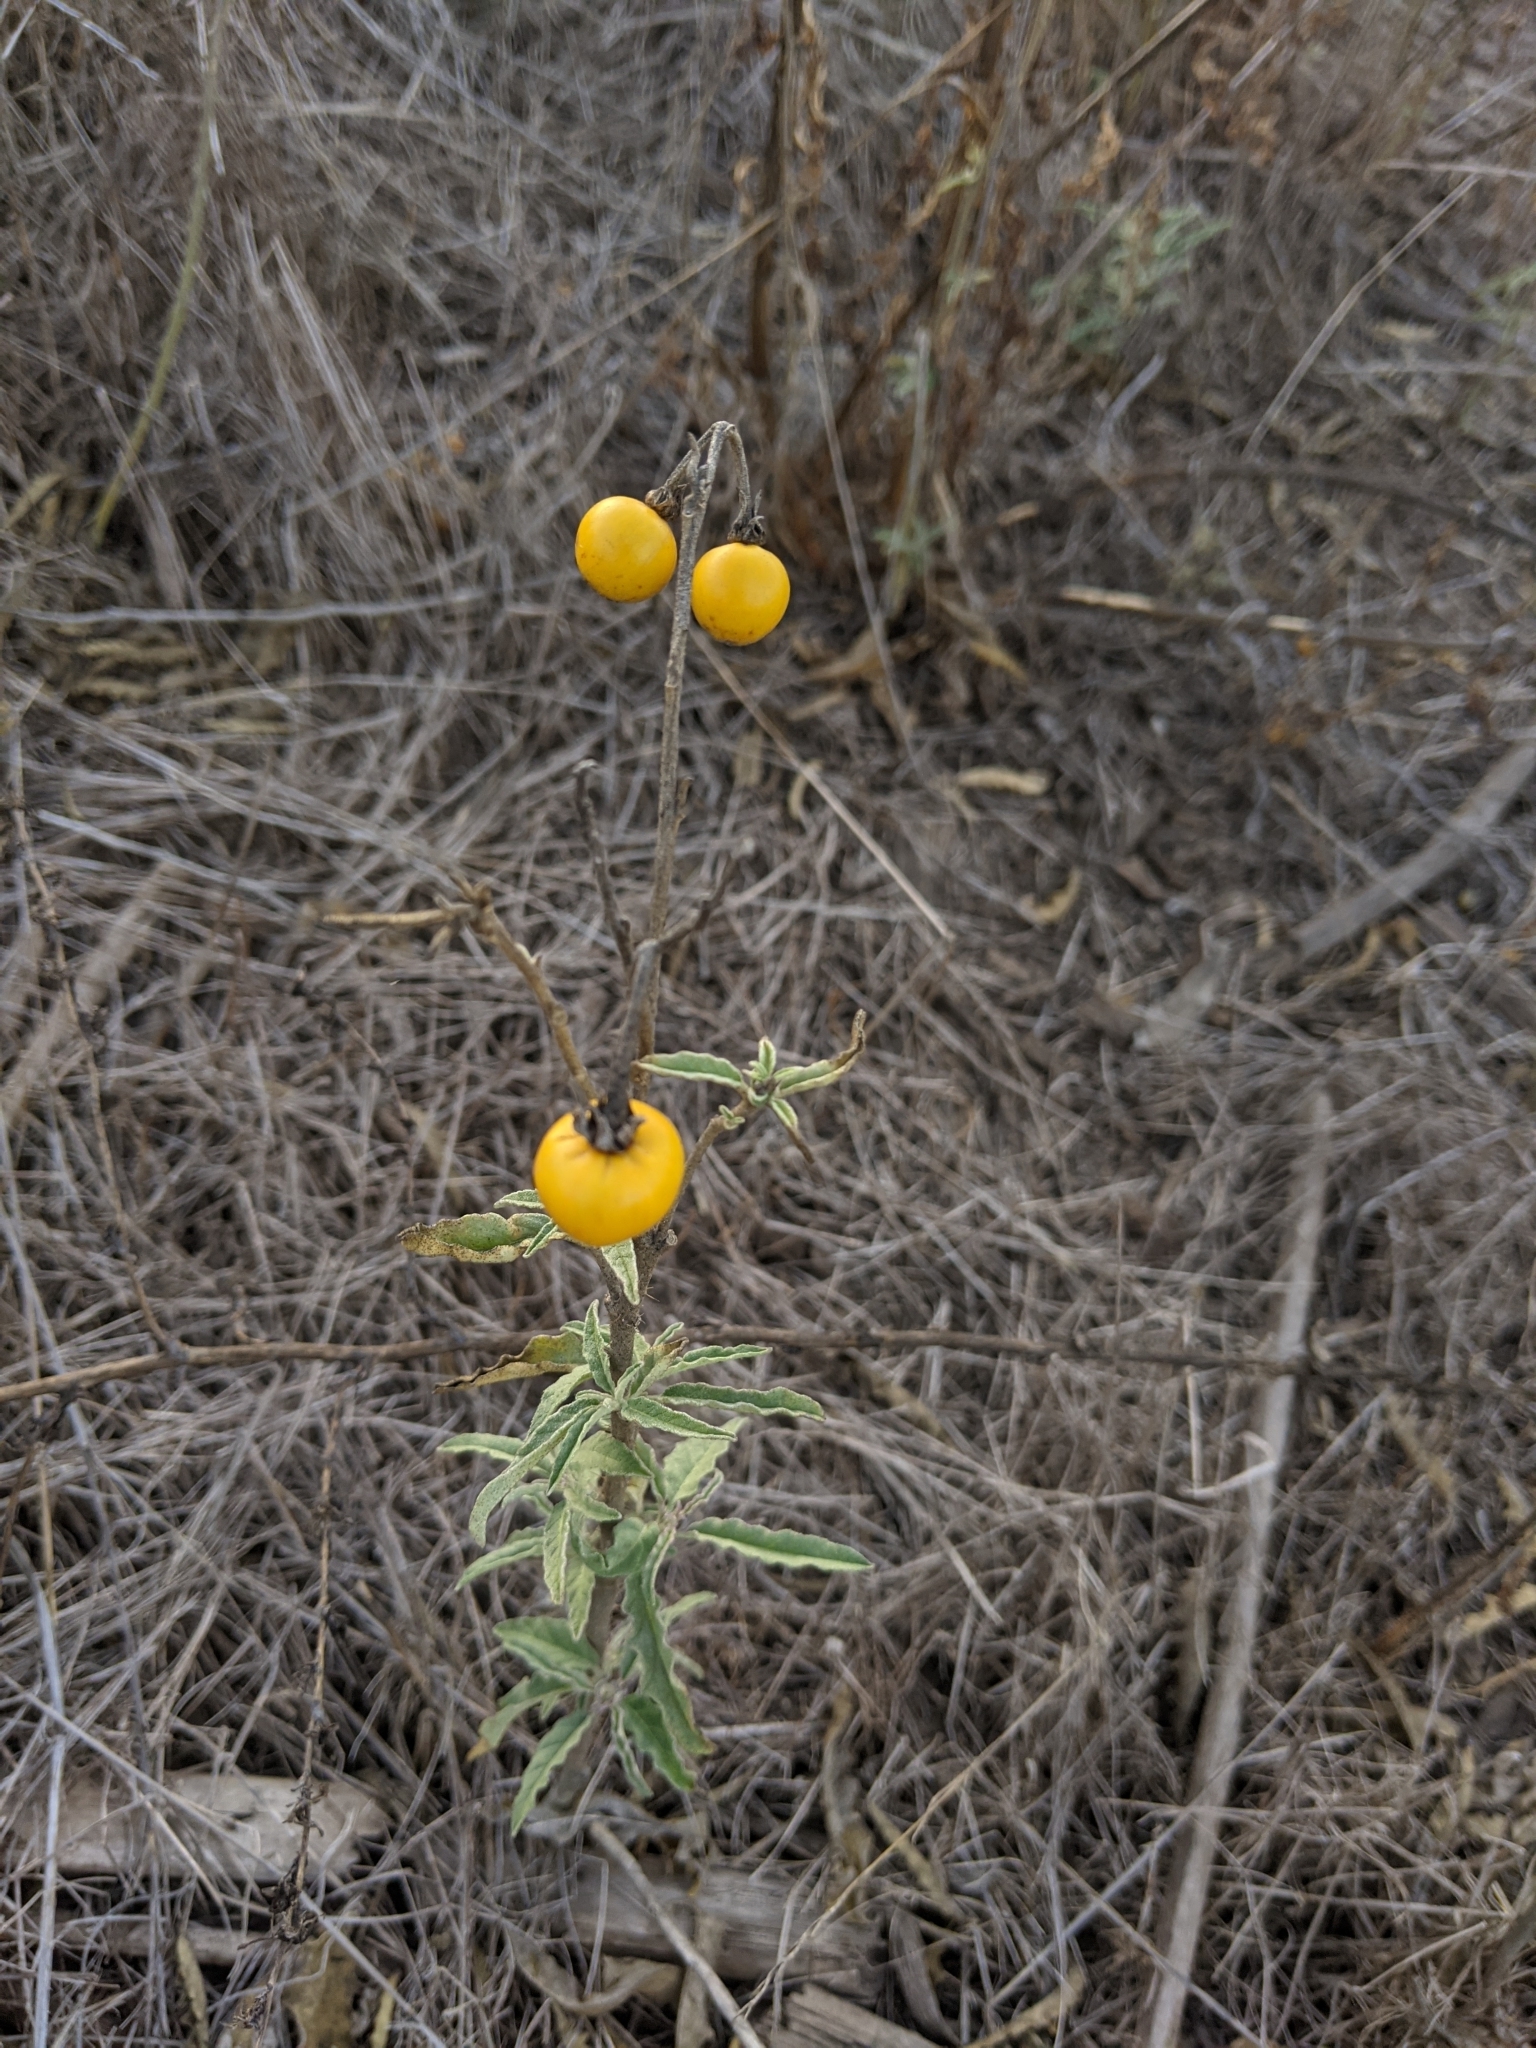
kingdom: Plantae
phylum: Tracheophyta
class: Magnoliopsida
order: Solanales
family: Solanaceae
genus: Solanum
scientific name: Solanum elaeagnifolium
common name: Silverleaf nightshade
